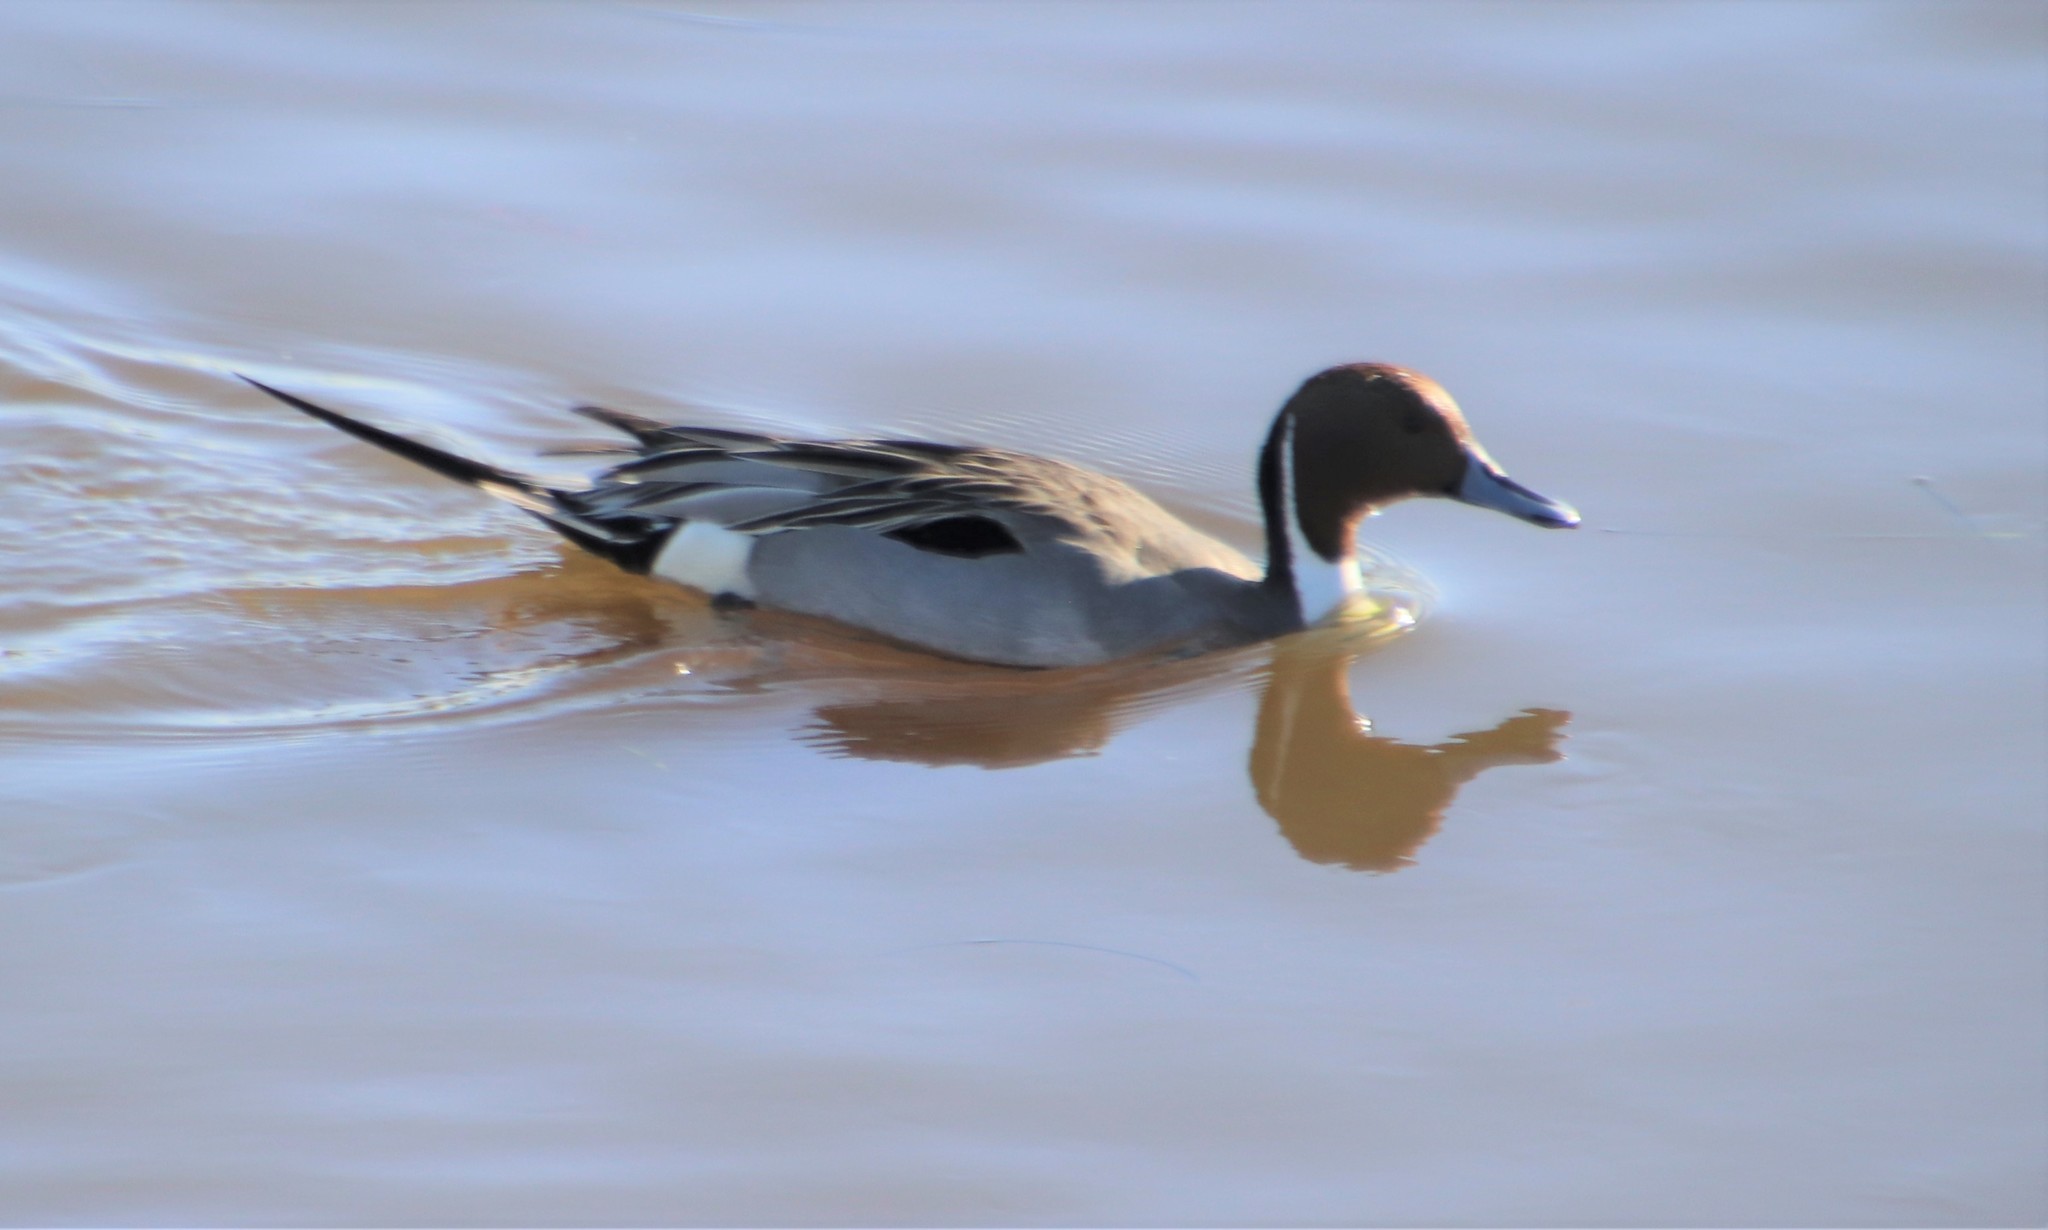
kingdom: Animalia
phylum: Chordata
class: Aves
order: Anseriformes
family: Anatidae
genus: Anas
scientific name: Anas acuta
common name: Northern pintail
